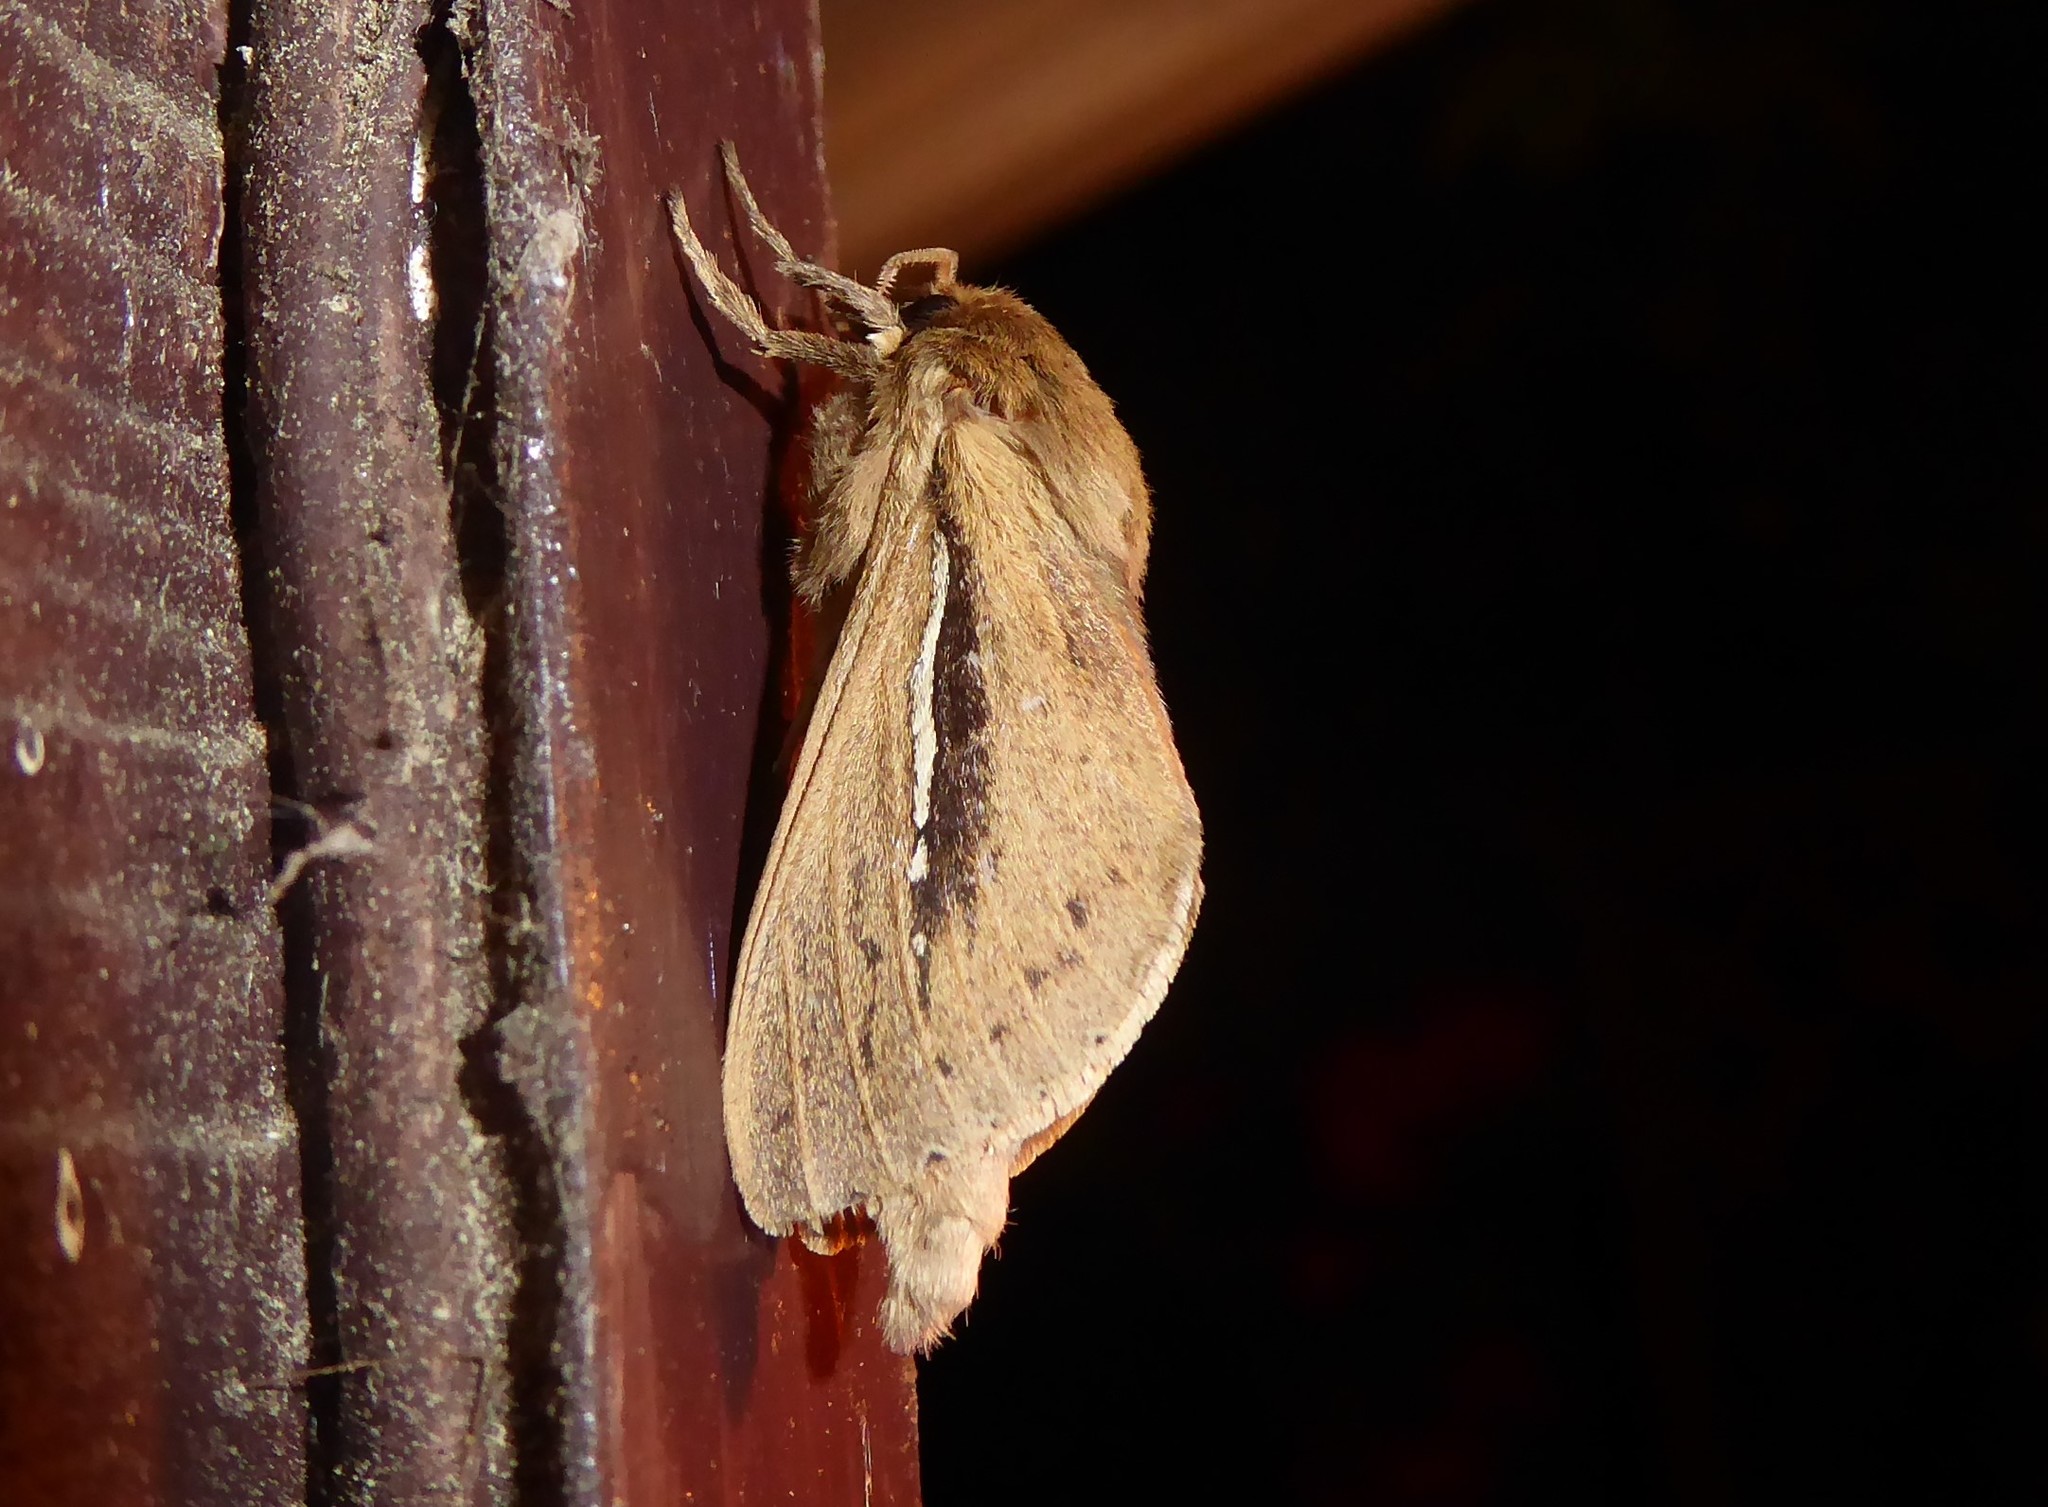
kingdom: Animalia
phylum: Arthropoda
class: Insecta
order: Lepidoptera
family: Hepialidae
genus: Wiseana
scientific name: Wiseana umbraculatus
